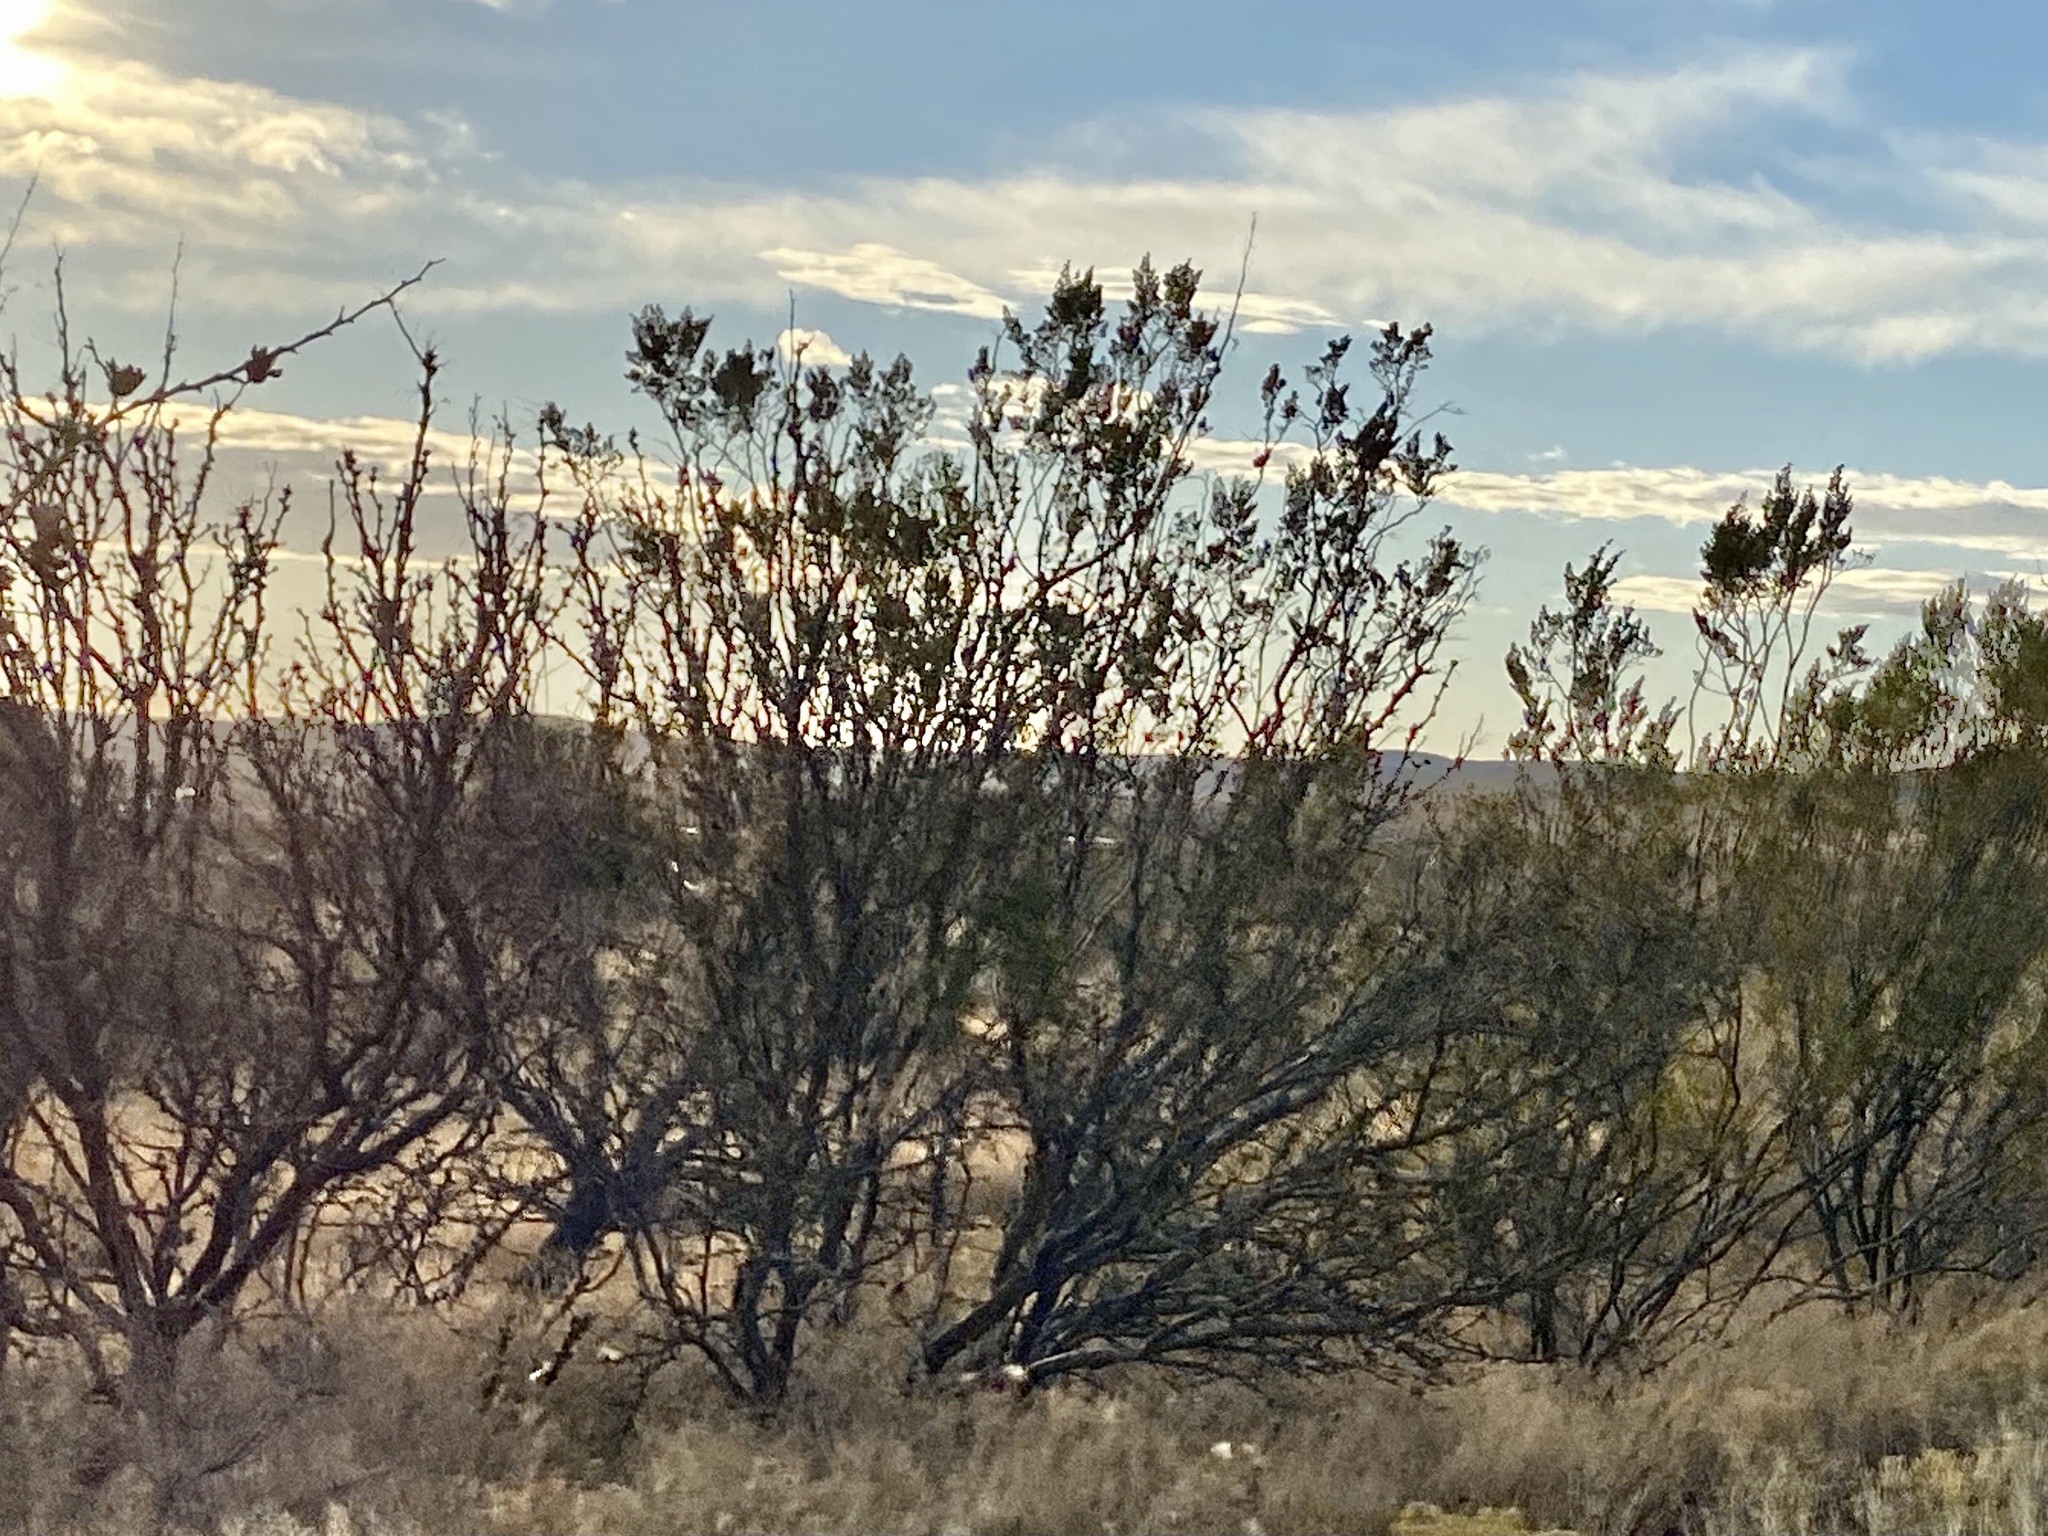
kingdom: Plantae
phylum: Tracheophyta
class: Magnoliopsida
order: Zygophyllales
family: Zygophyllaceae
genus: Larrea
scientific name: Larrea tridentata
